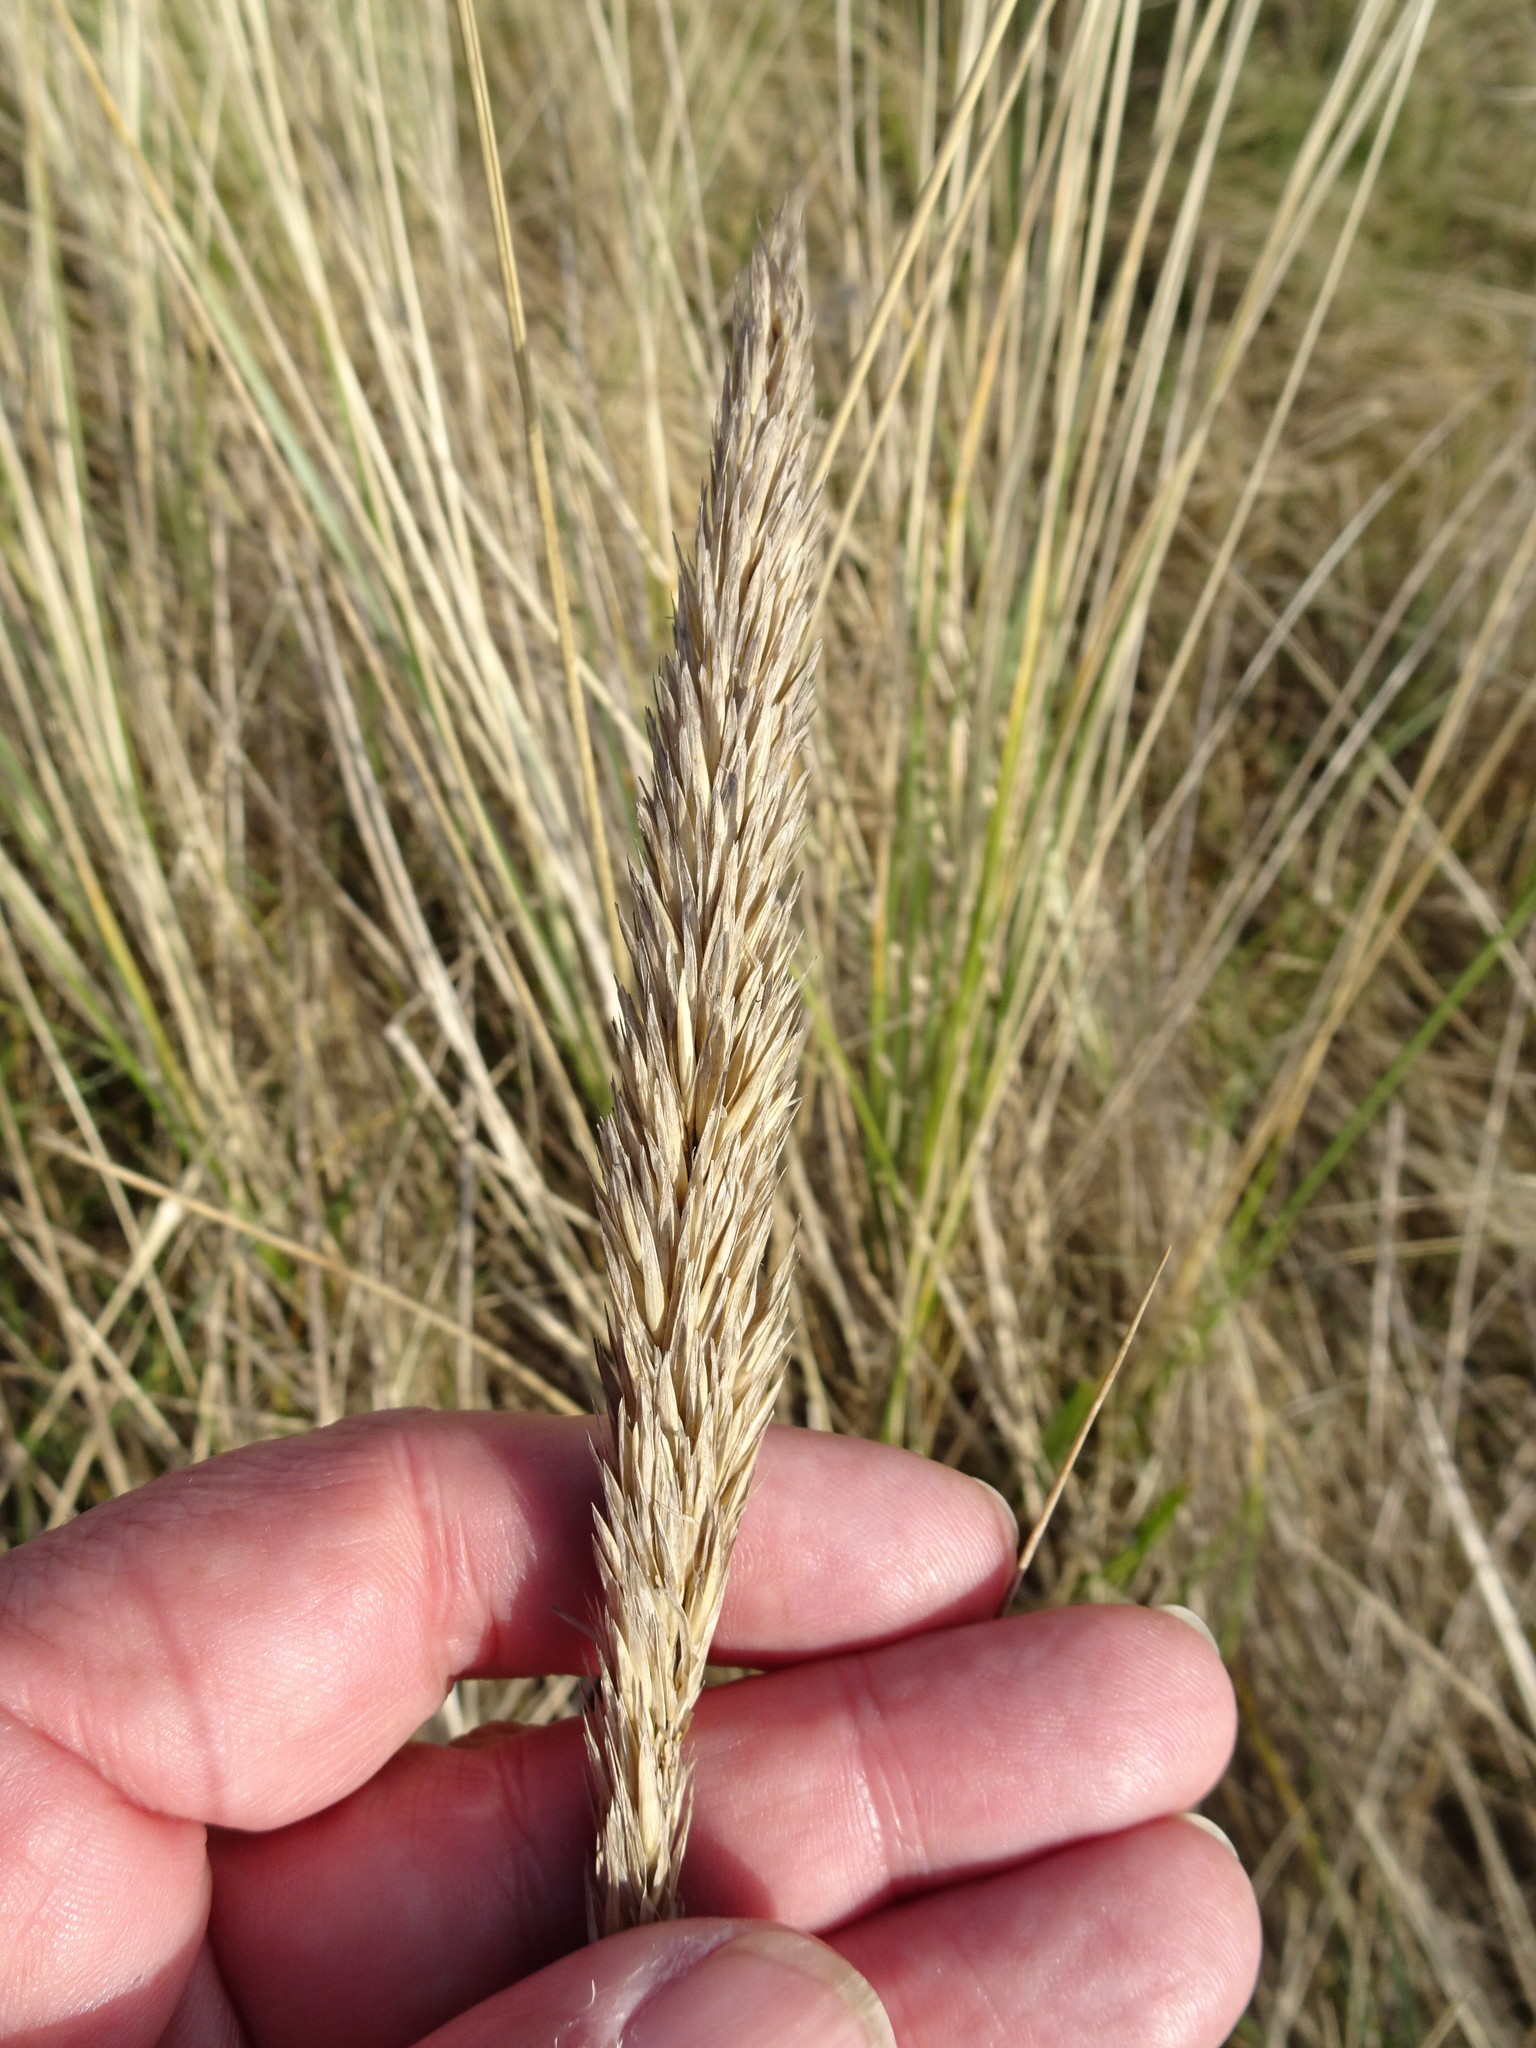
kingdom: Plantae
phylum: Tracheophyta
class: Liliopsida
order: Poales
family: Poaceae
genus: Calamagrostis
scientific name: Calamagrostis arenaria
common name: European beachgrass
